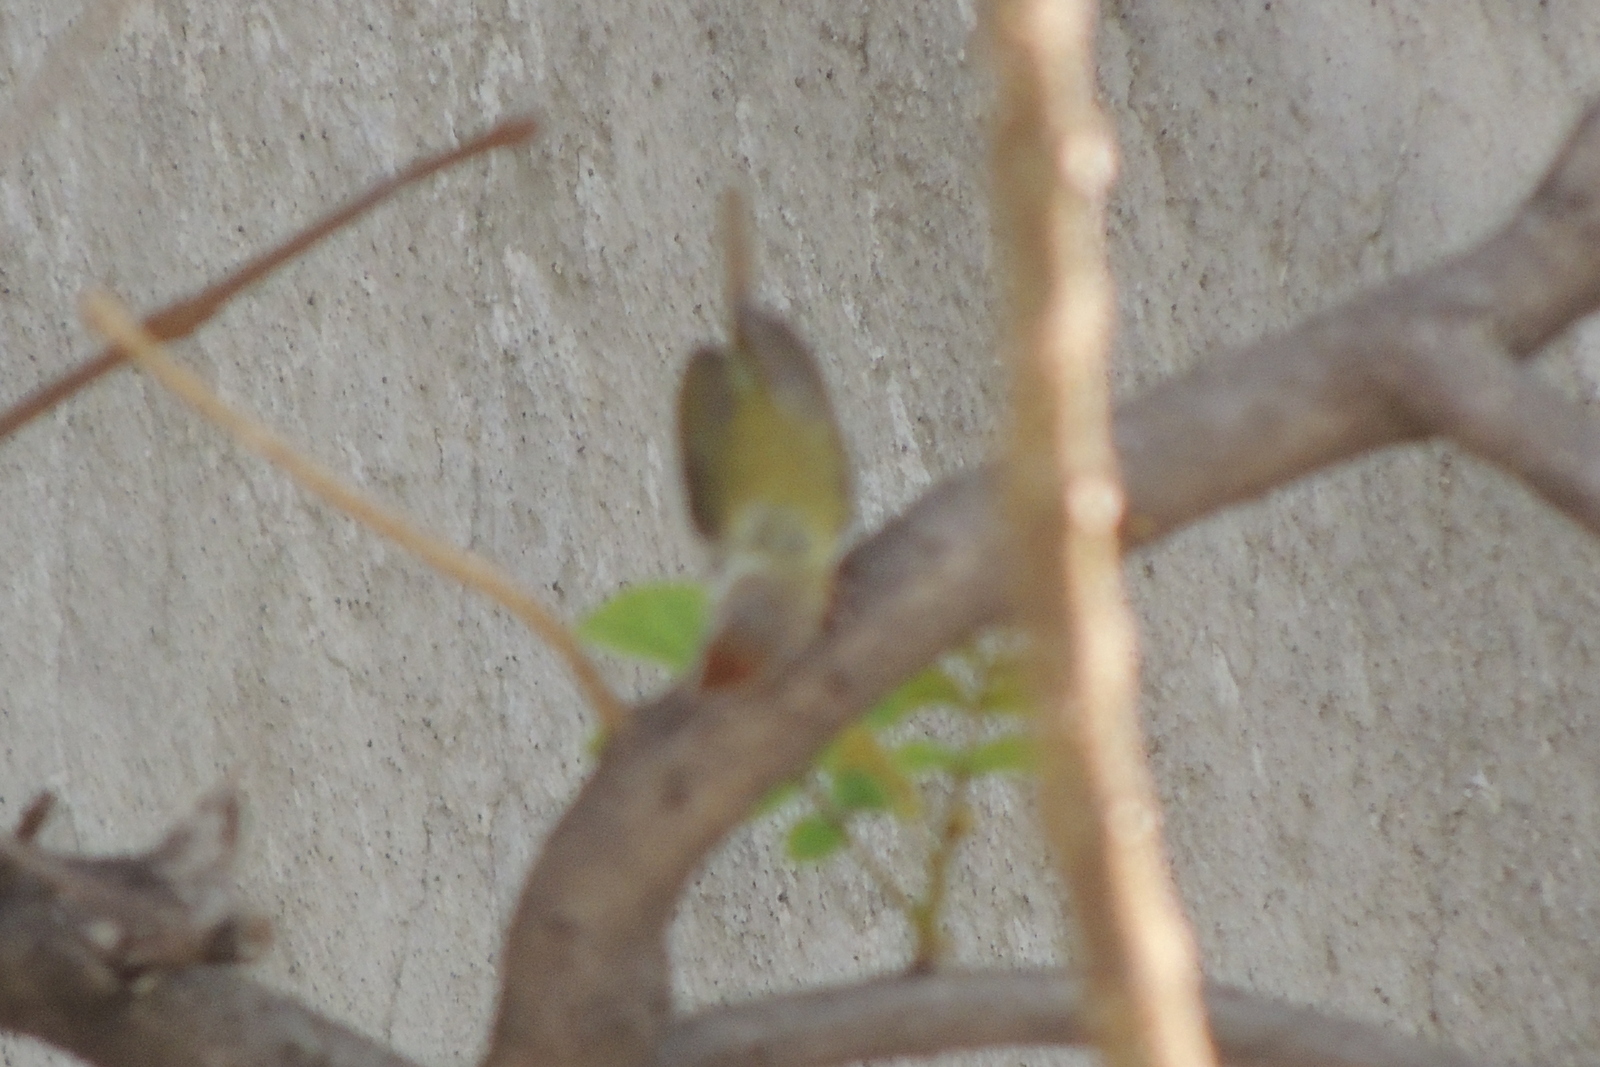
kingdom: Animalia
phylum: Chordata
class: Aves
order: Passeriformes
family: Cisticolidae
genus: Orthotomus
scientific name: Orthotomus sutorius
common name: Common tailorbird
